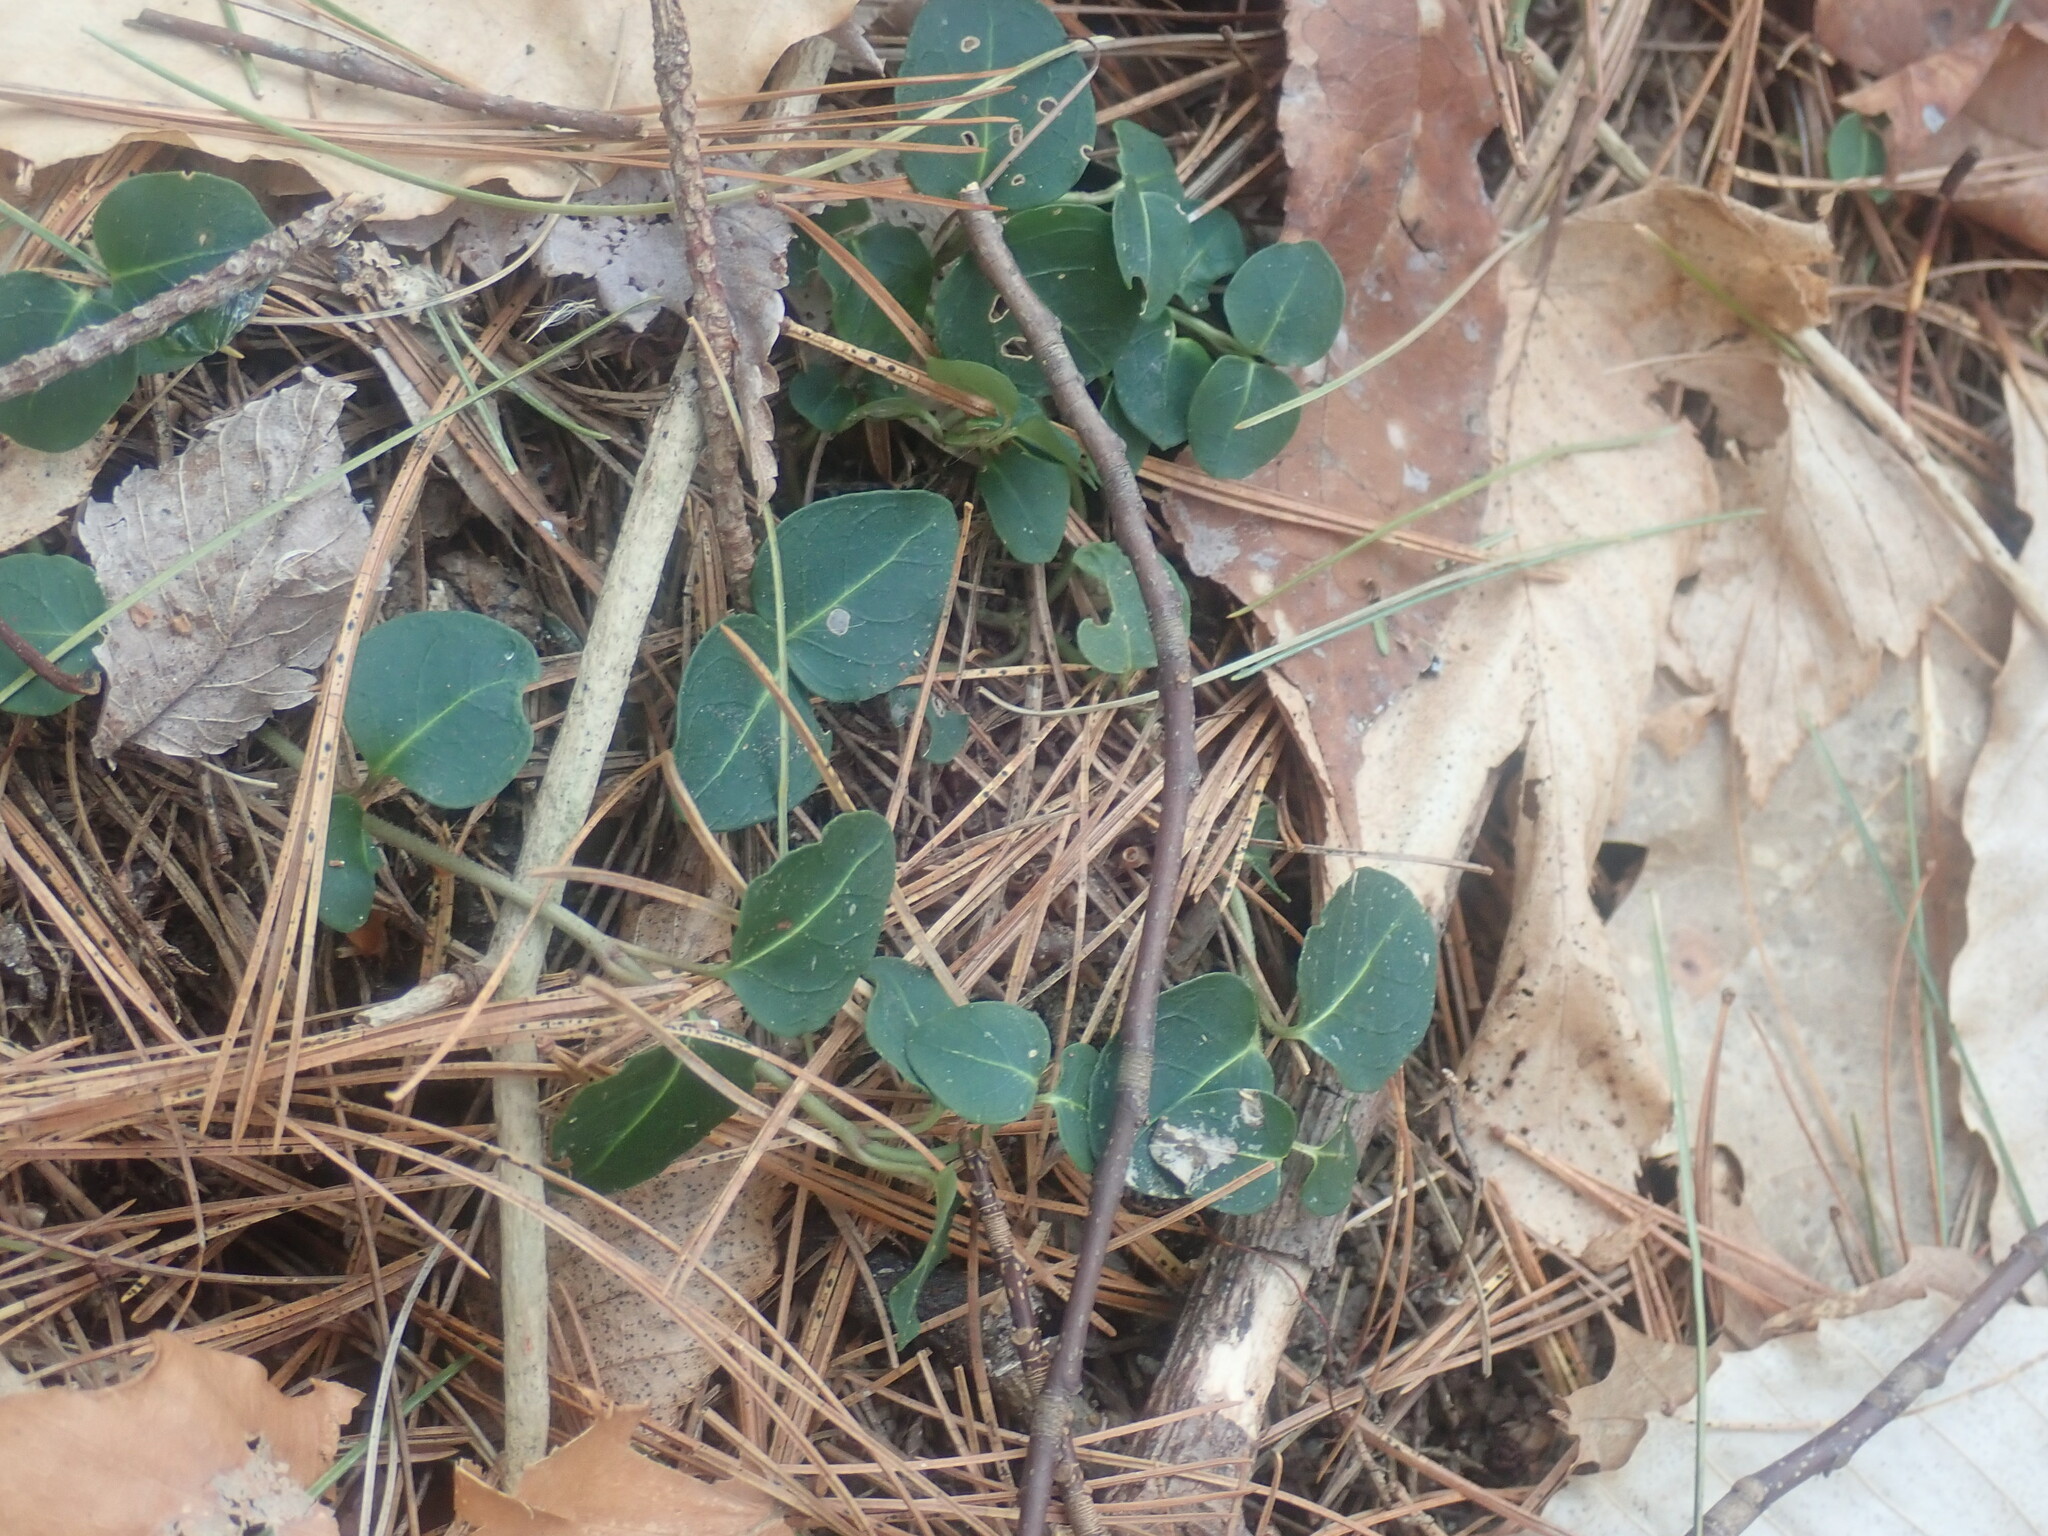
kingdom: Plantae
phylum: Tracheophyta
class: Magnoliopsida
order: Gentianales
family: Rubiaceae
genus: Mitchella
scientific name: Mitchella repens
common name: Partridge-berry
